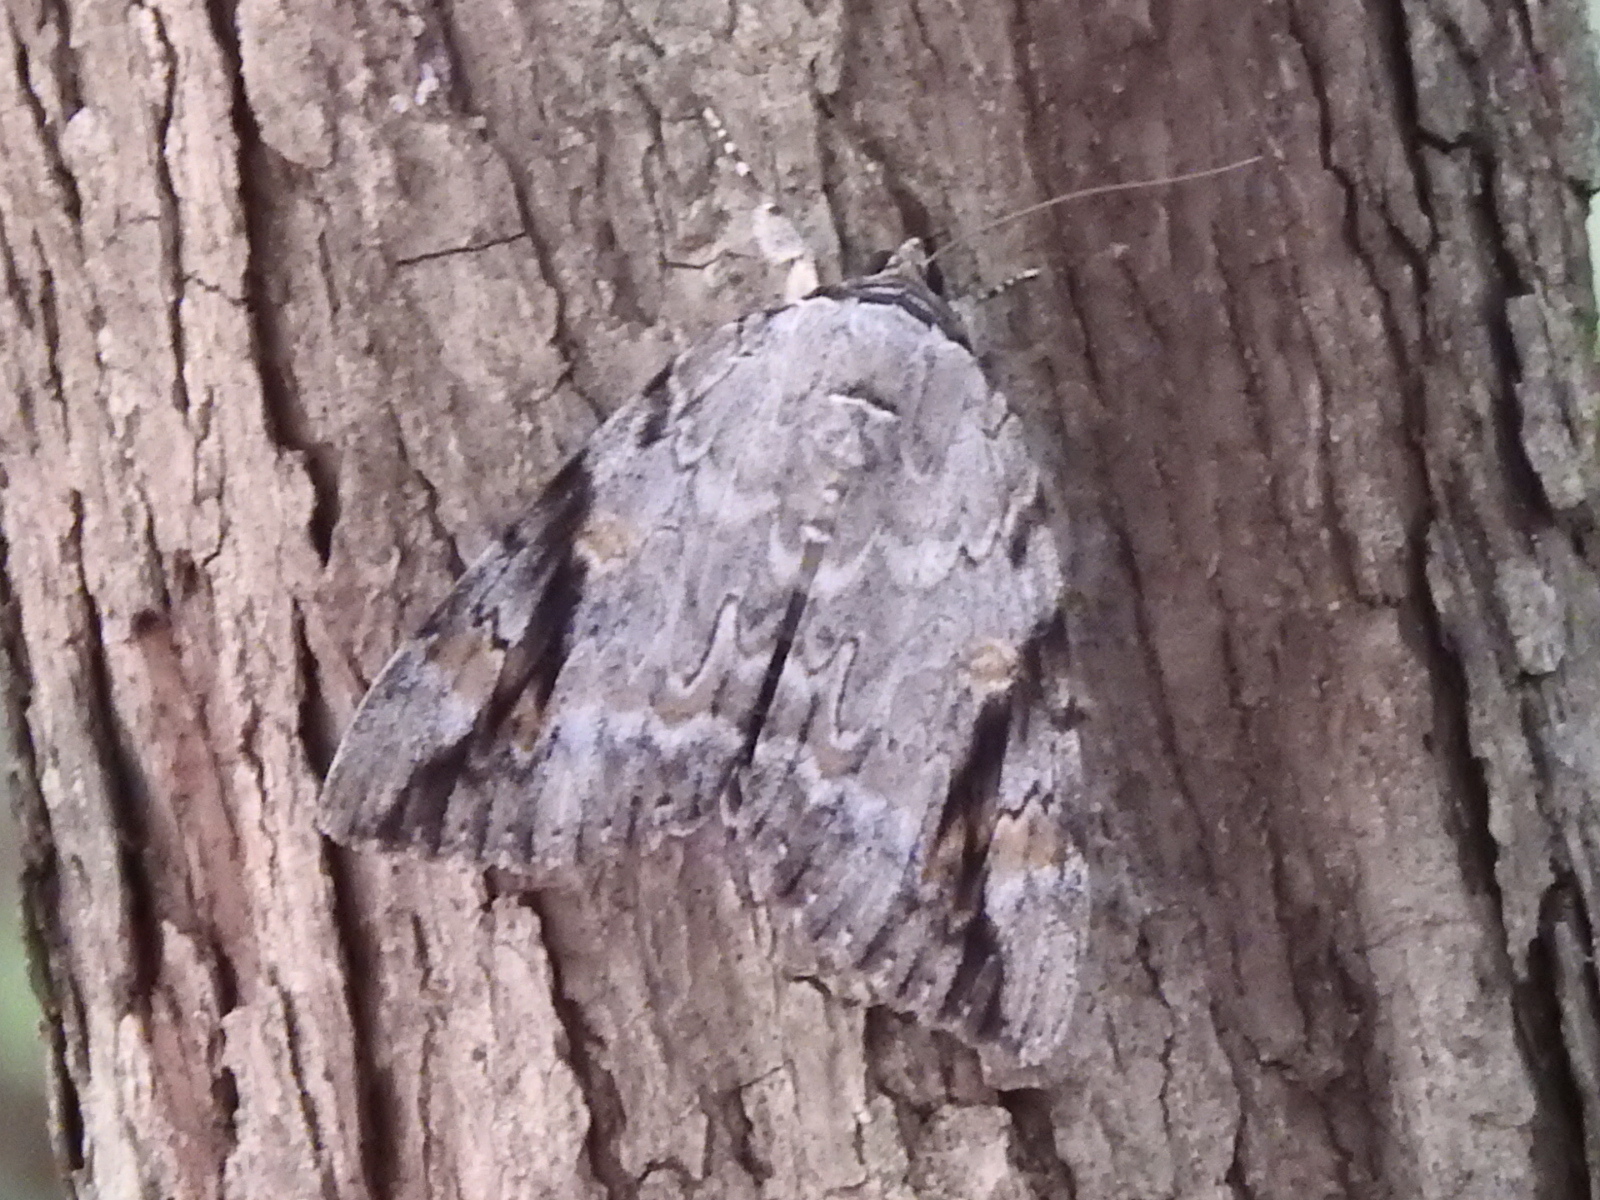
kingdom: Animalia
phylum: Arthropoda
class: Insecta
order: Lepidoptera
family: Erebidae
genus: Catocala
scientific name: Catocala maestosa
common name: Sad underwing
